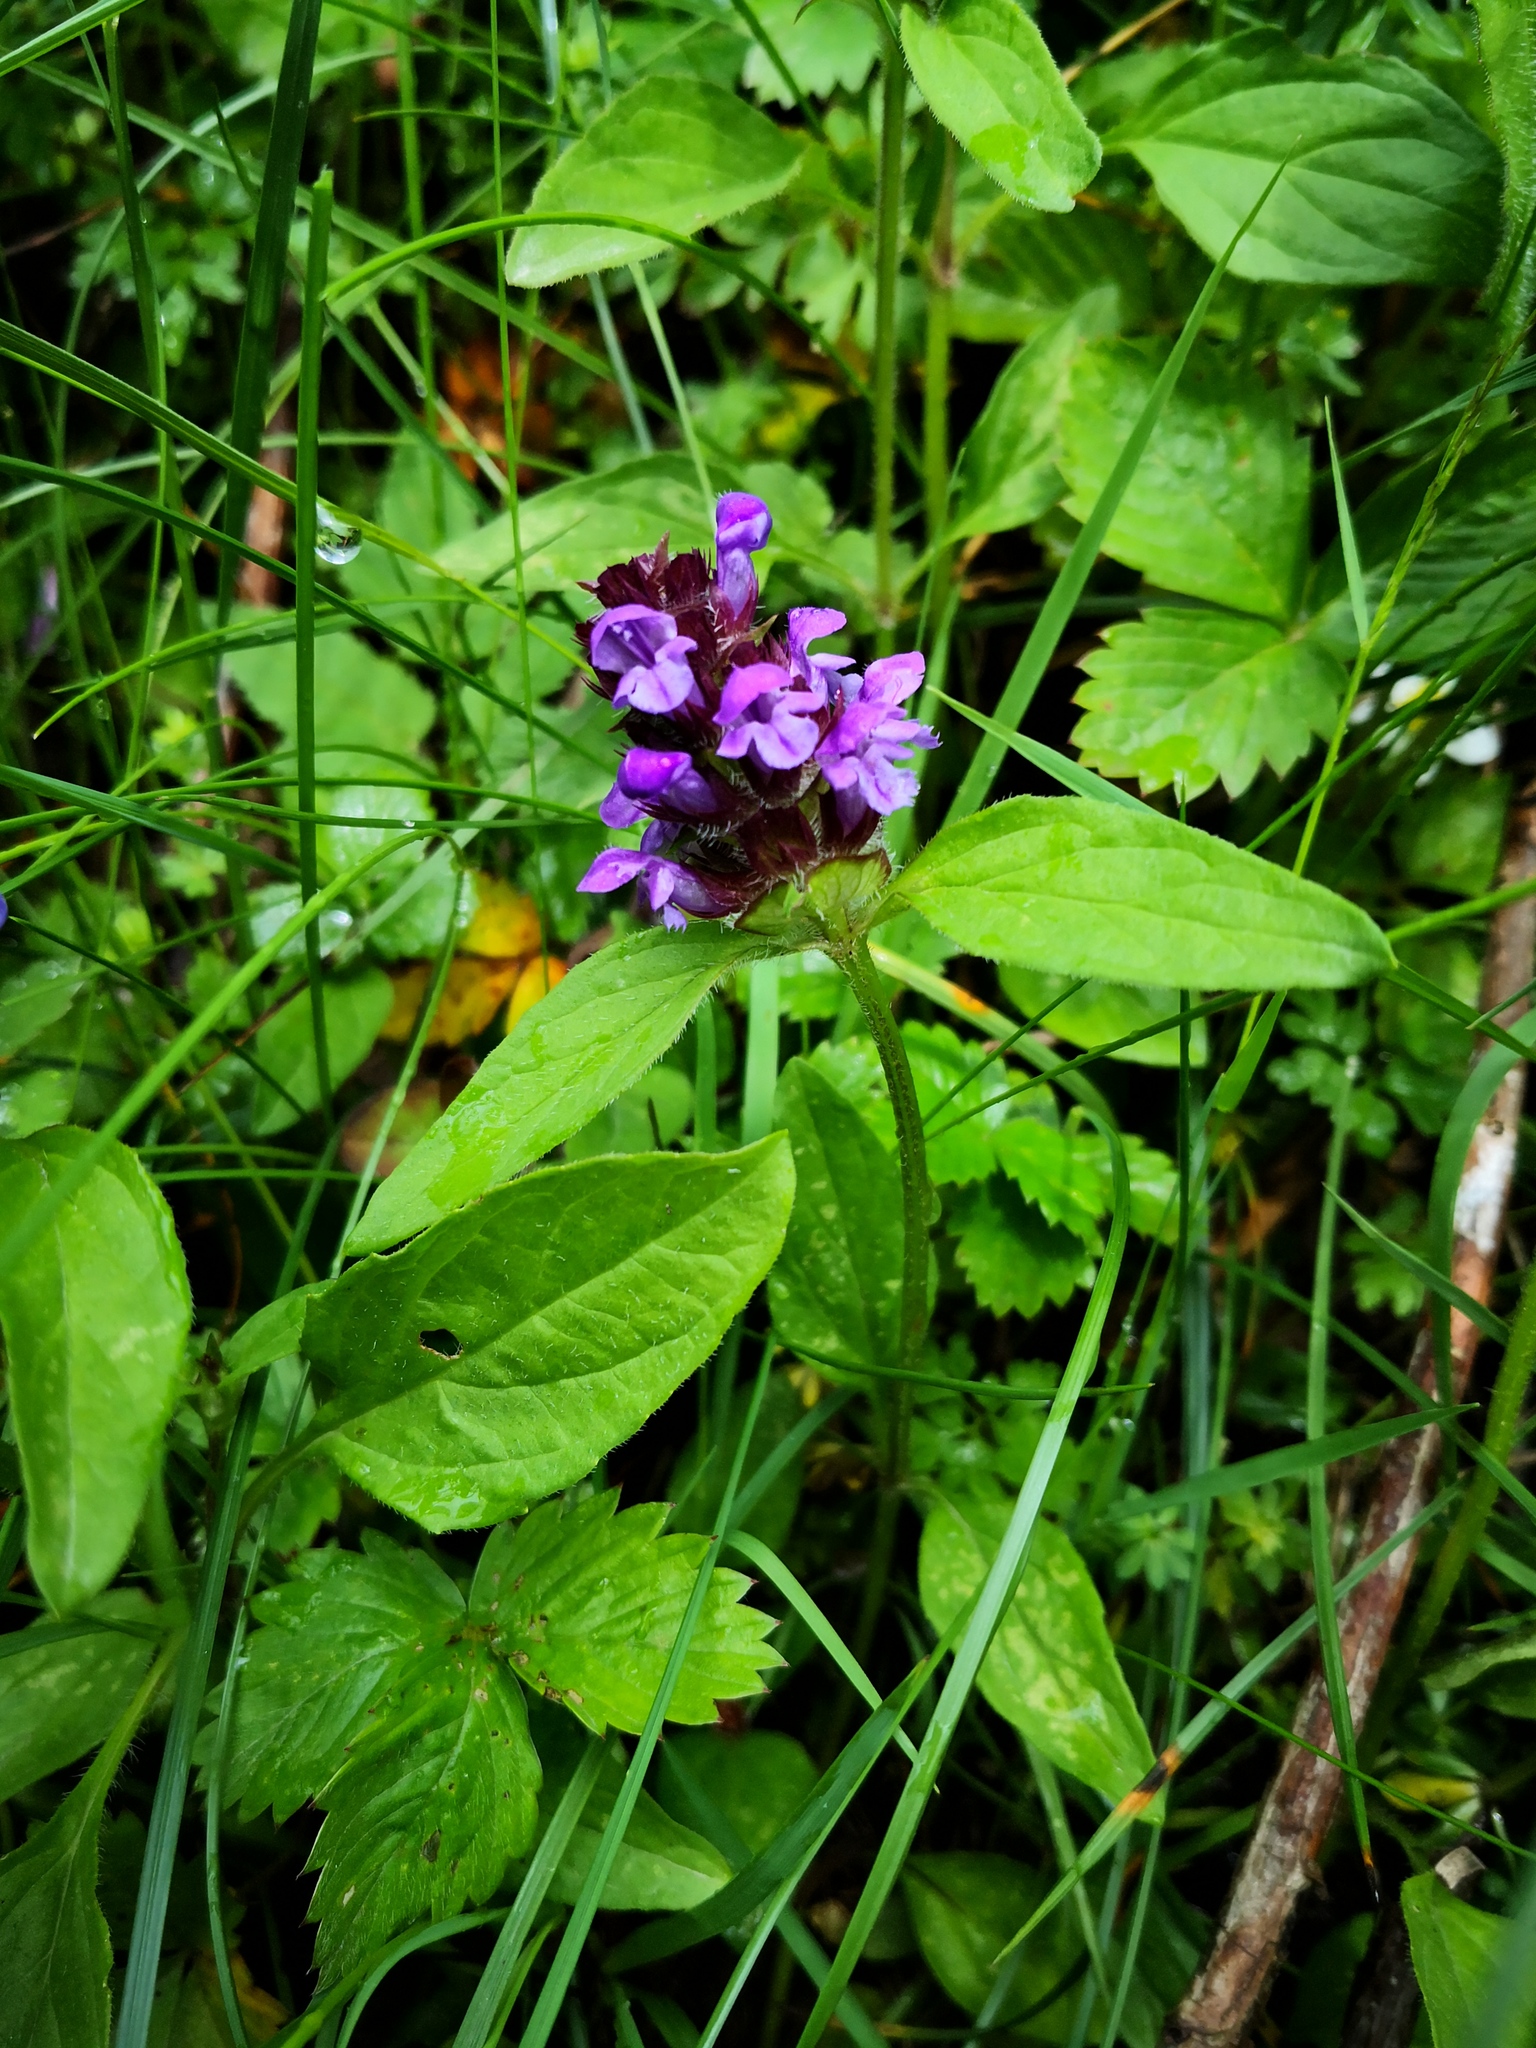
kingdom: Plantae
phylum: Tracheophyta
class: Magnoliopsida
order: Lamiales
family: Lamiaceae
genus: Prunella
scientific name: Prunella vulgaris
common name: Heal-all
